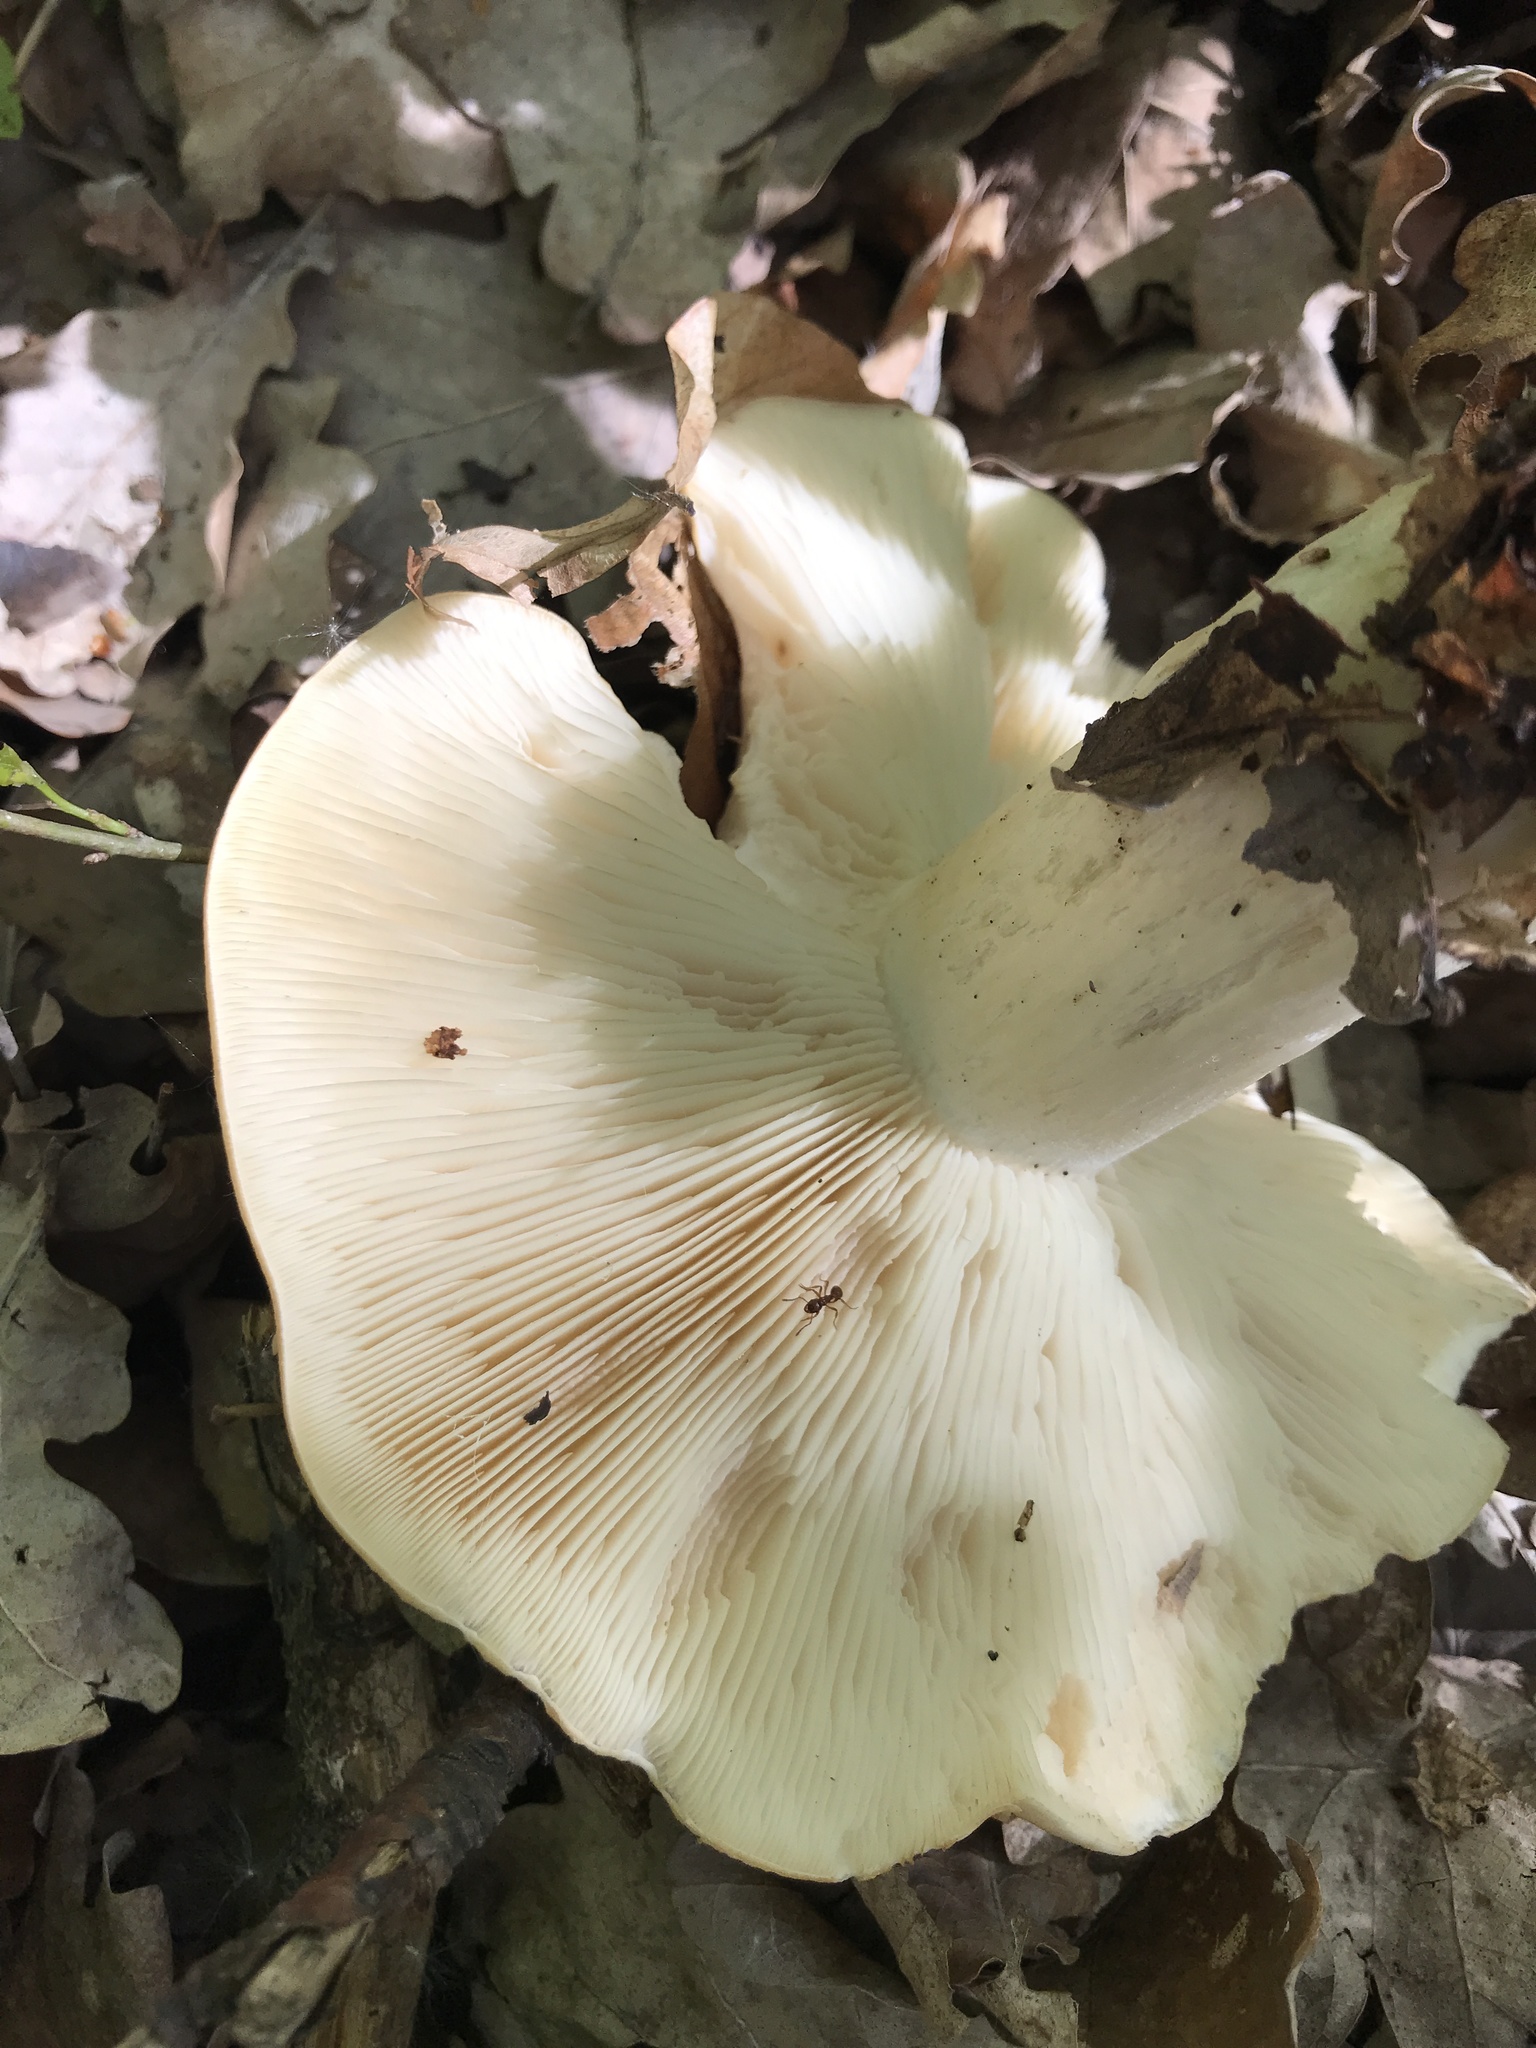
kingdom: Fungi
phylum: Basidiomycota
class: Agaricomycetes
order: Agaricales
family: Lyophyllaceae
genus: Calocybe
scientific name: Calocybe gambosa
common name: St. george's mushroom
